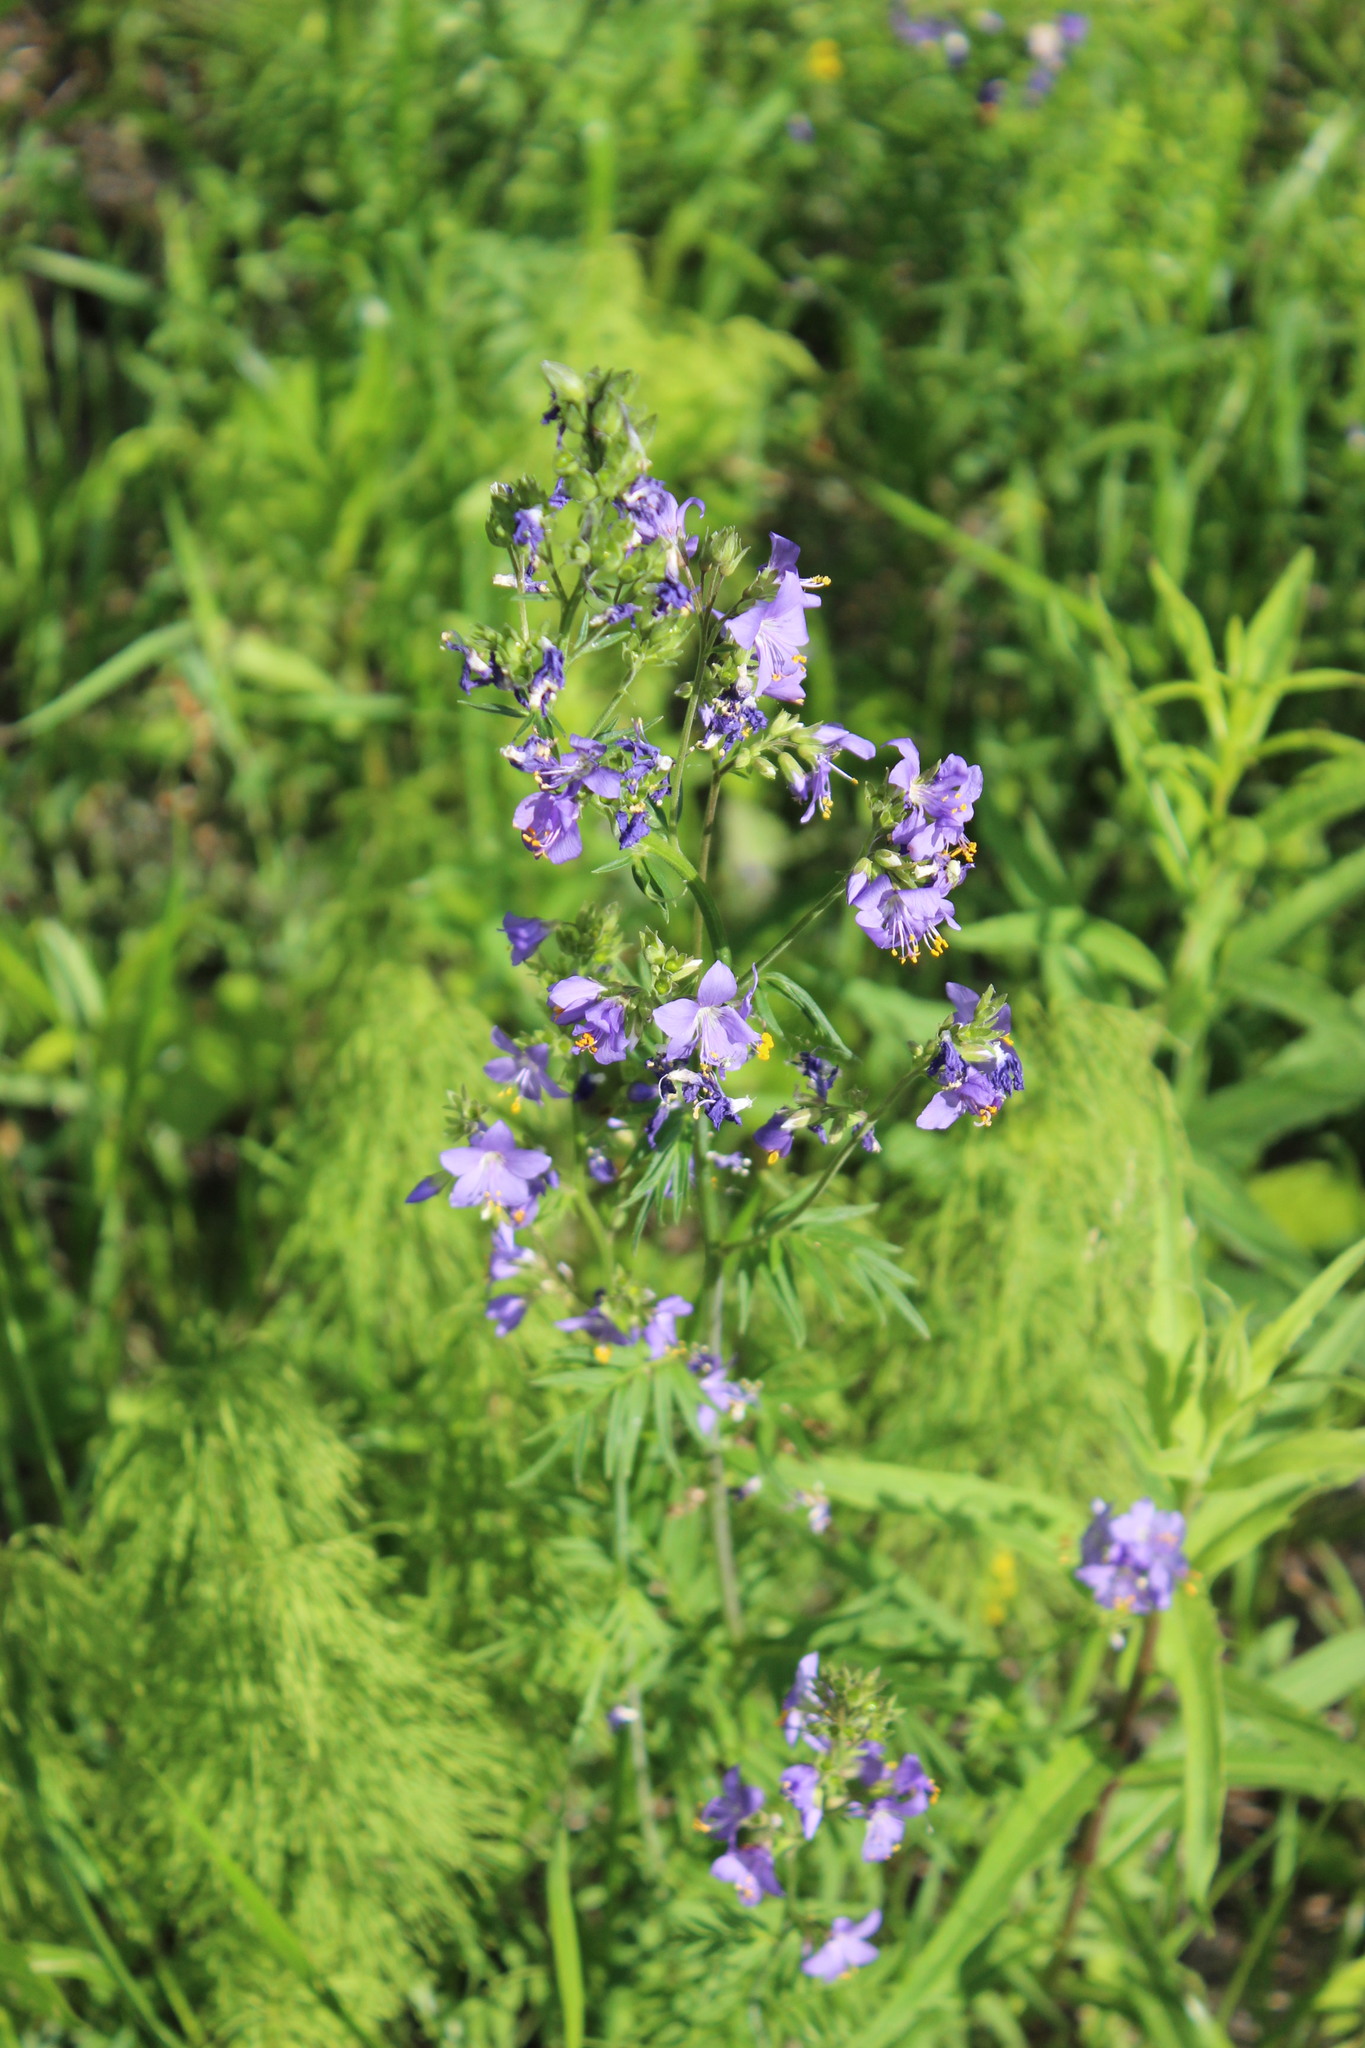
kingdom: Plantae
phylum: Tracheophyta
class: Magnoliopsida
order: Ericales
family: Polemoniaceae
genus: Polemonium
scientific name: Polemonium caeruleum
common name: Jacob's-ladder
